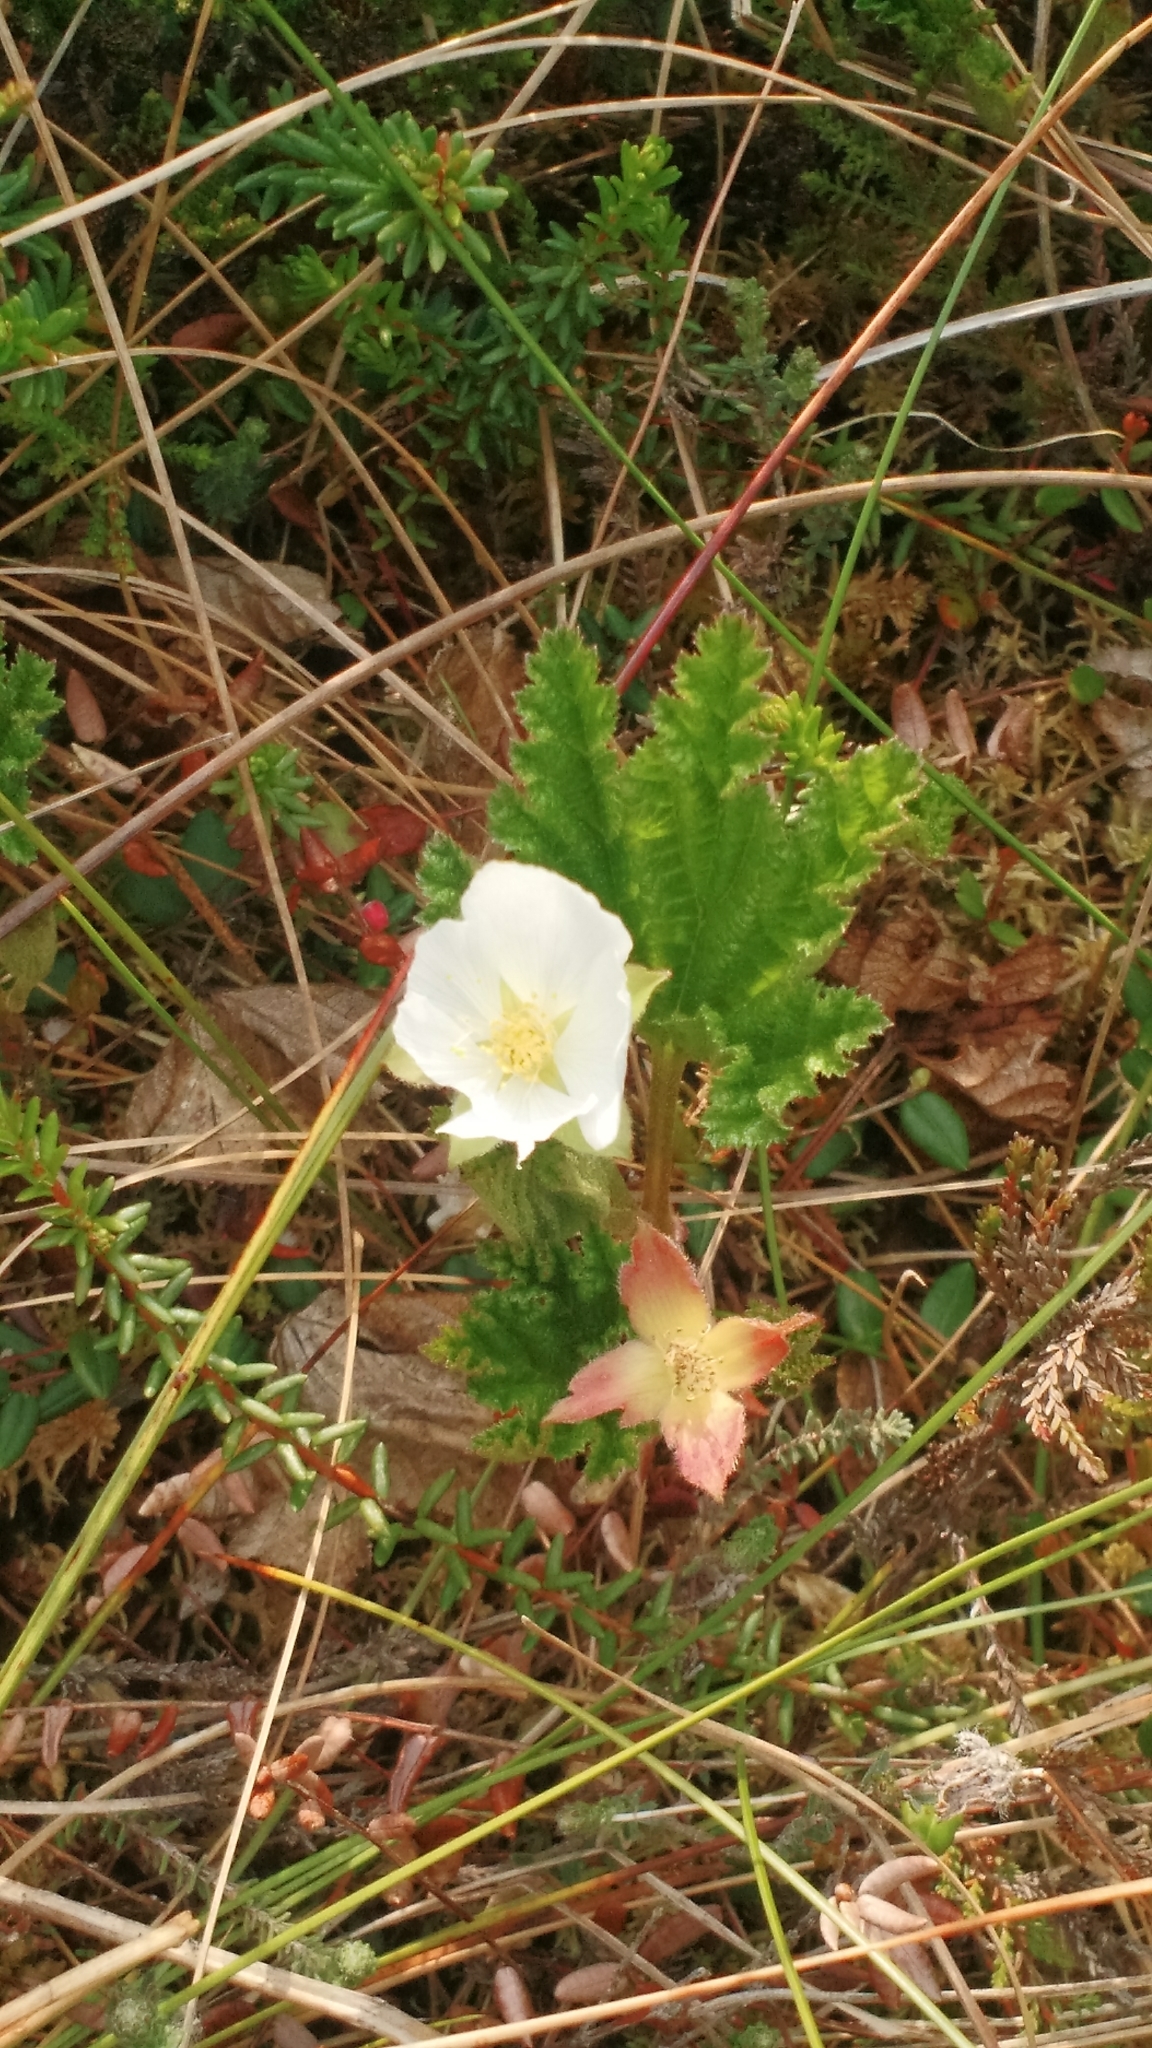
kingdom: Plantae
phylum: Tracheophyta
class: Magnoliopsida
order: Rosales
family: Rosaceae
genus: Rubus
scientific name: Rubus chamaemorus
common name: Cloudberry
